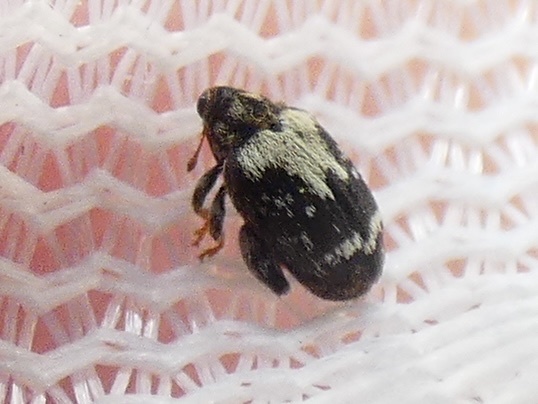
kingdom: Animalia
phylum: Arthropoda
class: Insecta
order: Coleoptera
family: Curculionidae
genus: Orchestes
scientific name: Orchestes hortorum
